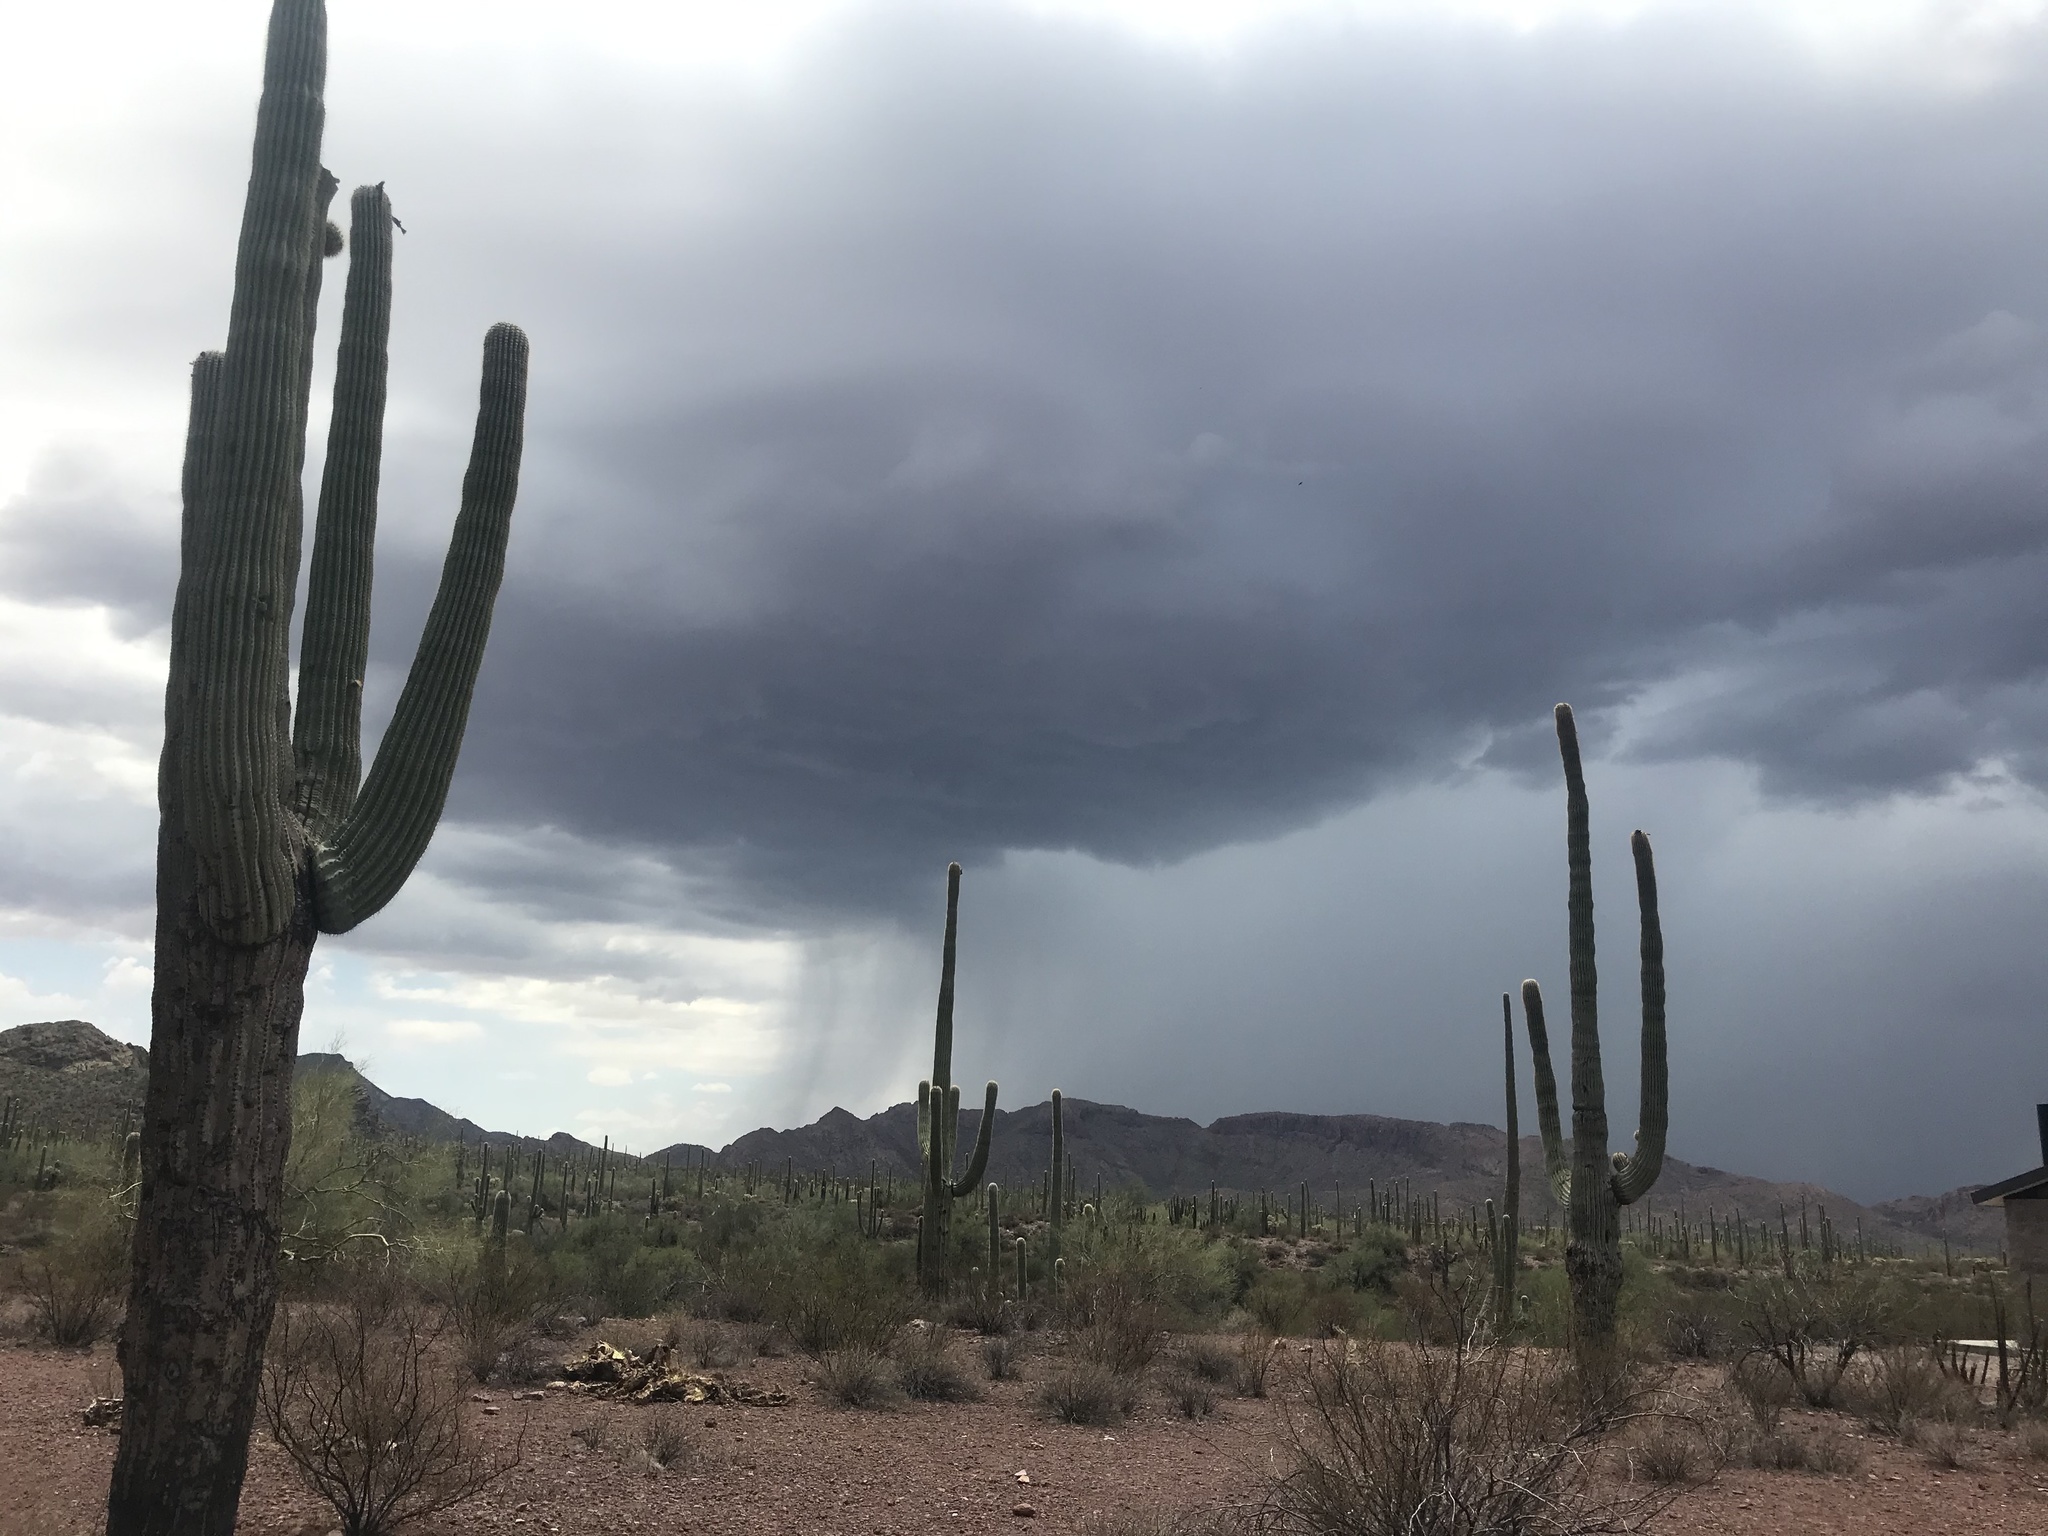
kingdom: Plantae
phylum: Tracheophyta
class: Magnoliopsida
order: Caryophyllales
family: Cactaceae
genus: Carnegiea
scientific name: Carnegiea gigantea
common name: Saguaro
